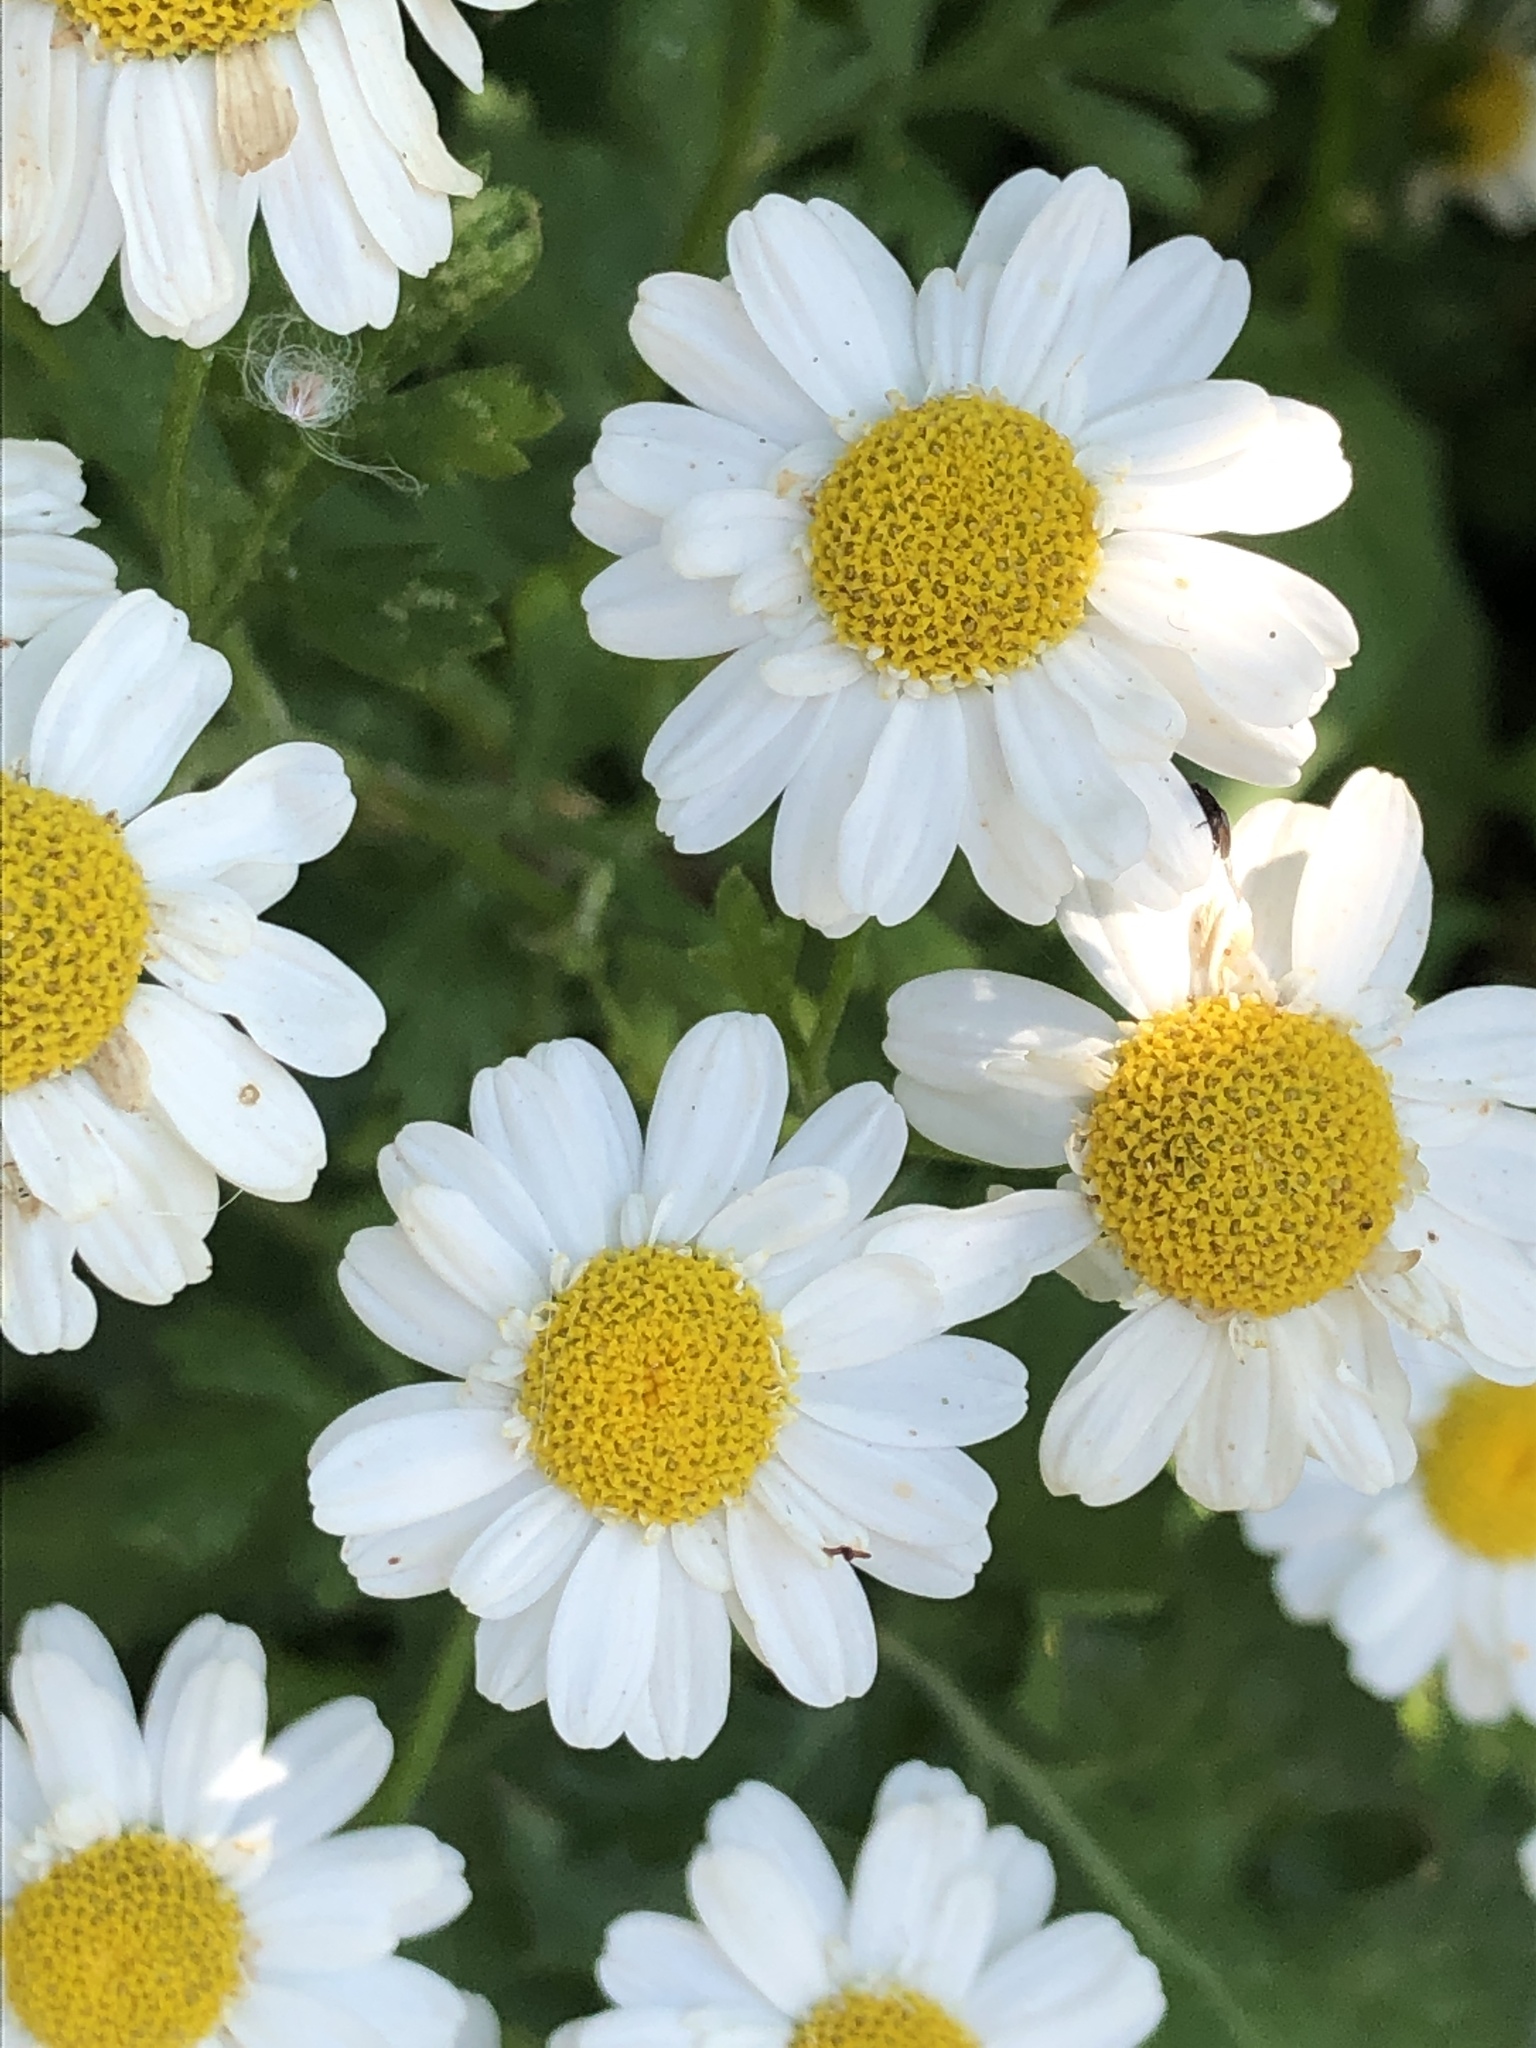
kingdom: Plantae
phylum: Tracheophyta
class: Magnoliopsida
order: Asterales
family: Asteraceae
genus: Tanacetum
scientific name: Tanacetum parthenium
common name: Feverfew
